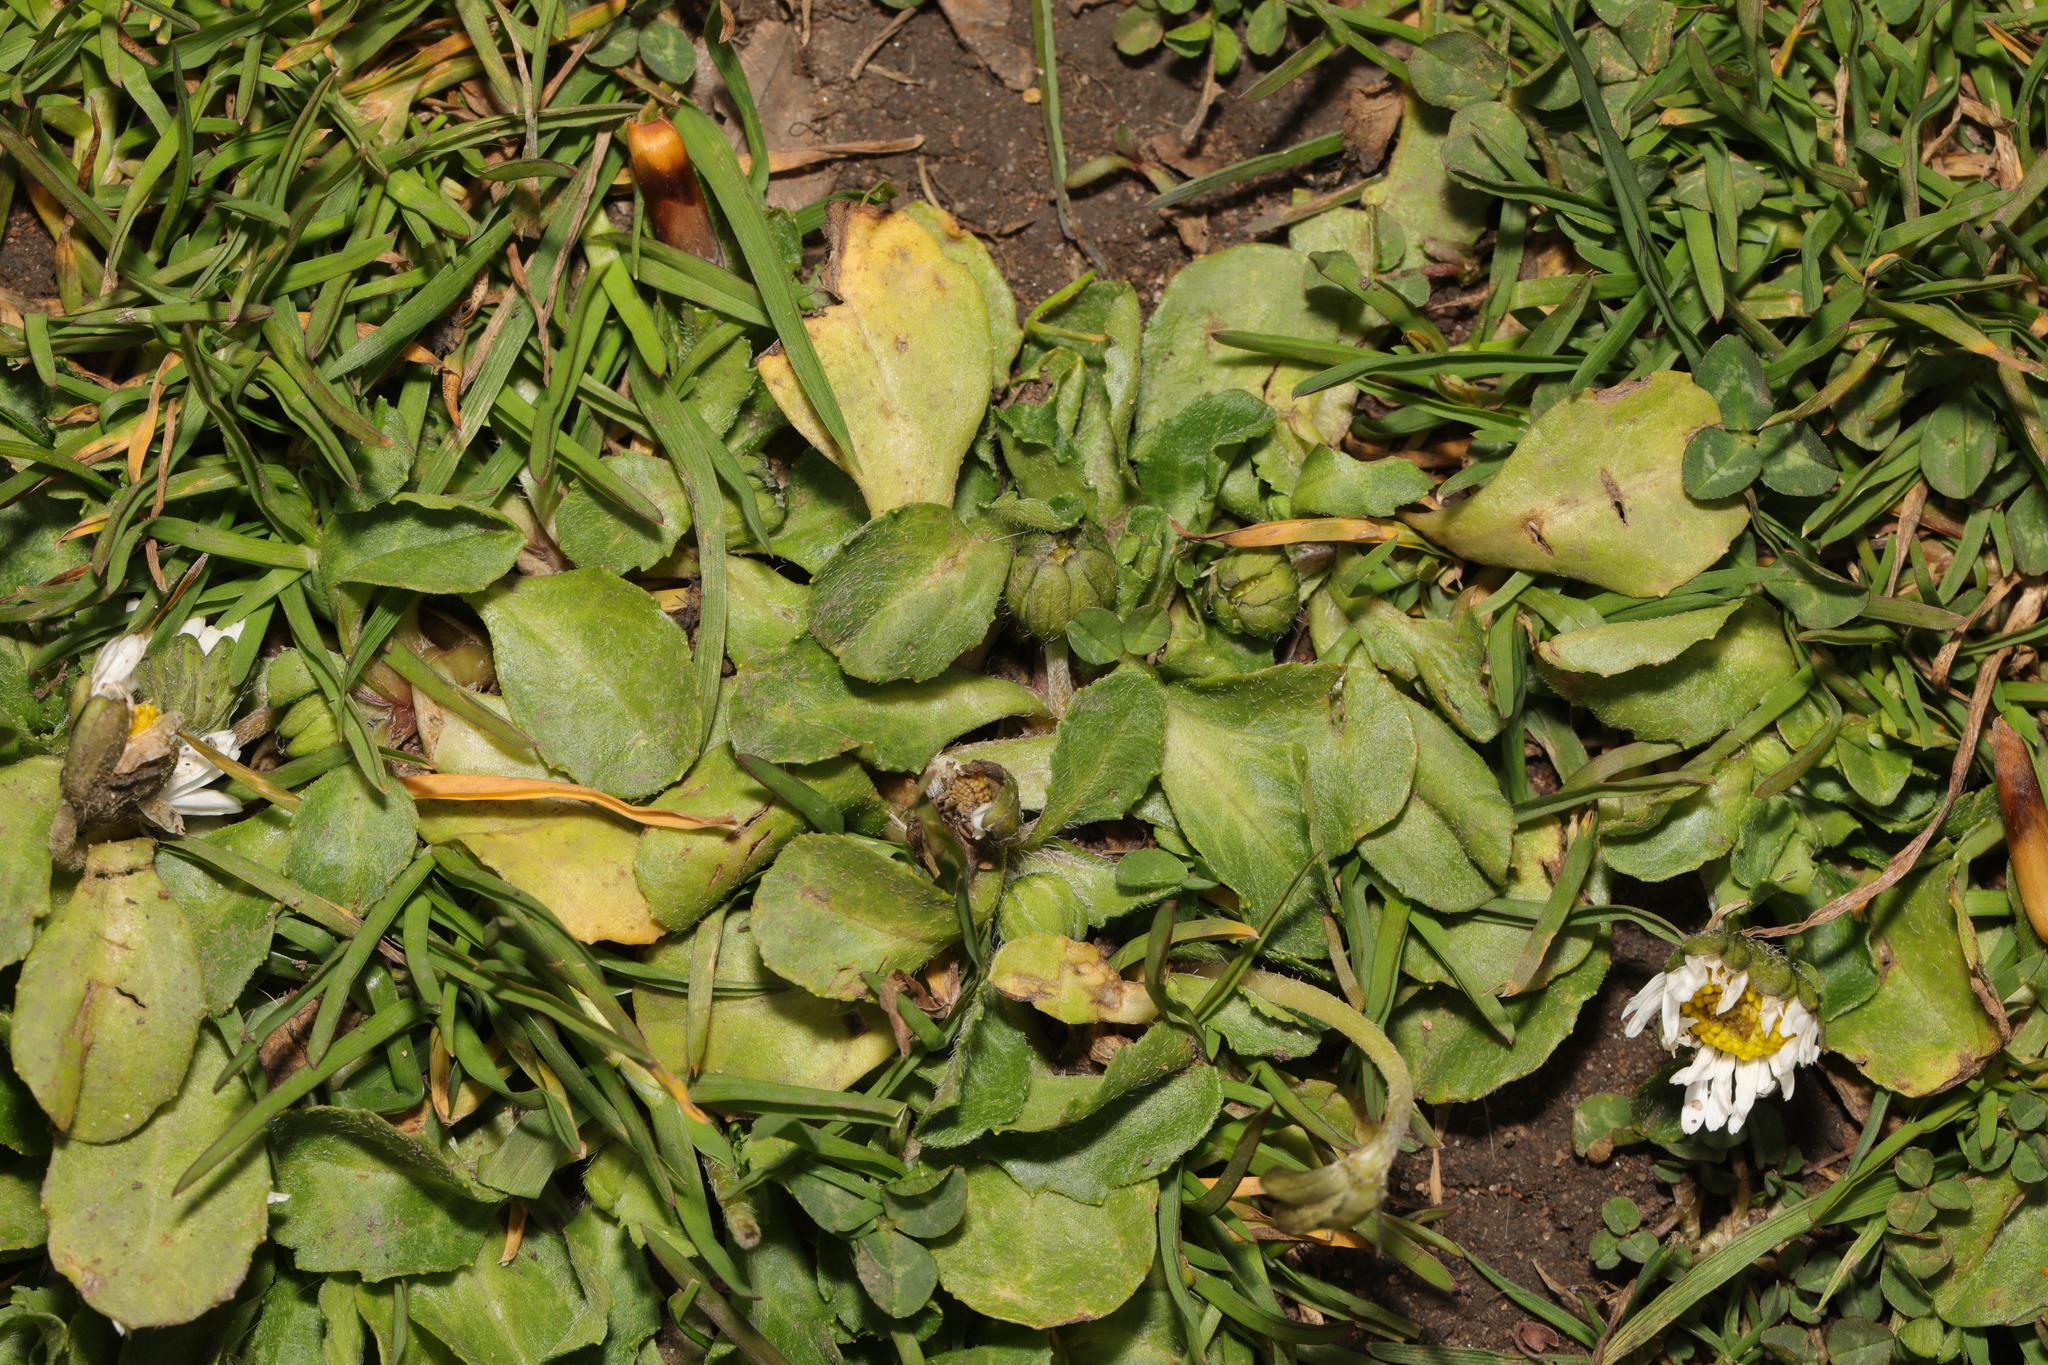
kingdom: Plantae
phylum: Tracheophyta
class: Magnoliopsida
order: Asterales
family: Asteraceae
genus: Bellis
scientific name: Bellis perennis
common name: Lawndaisy
